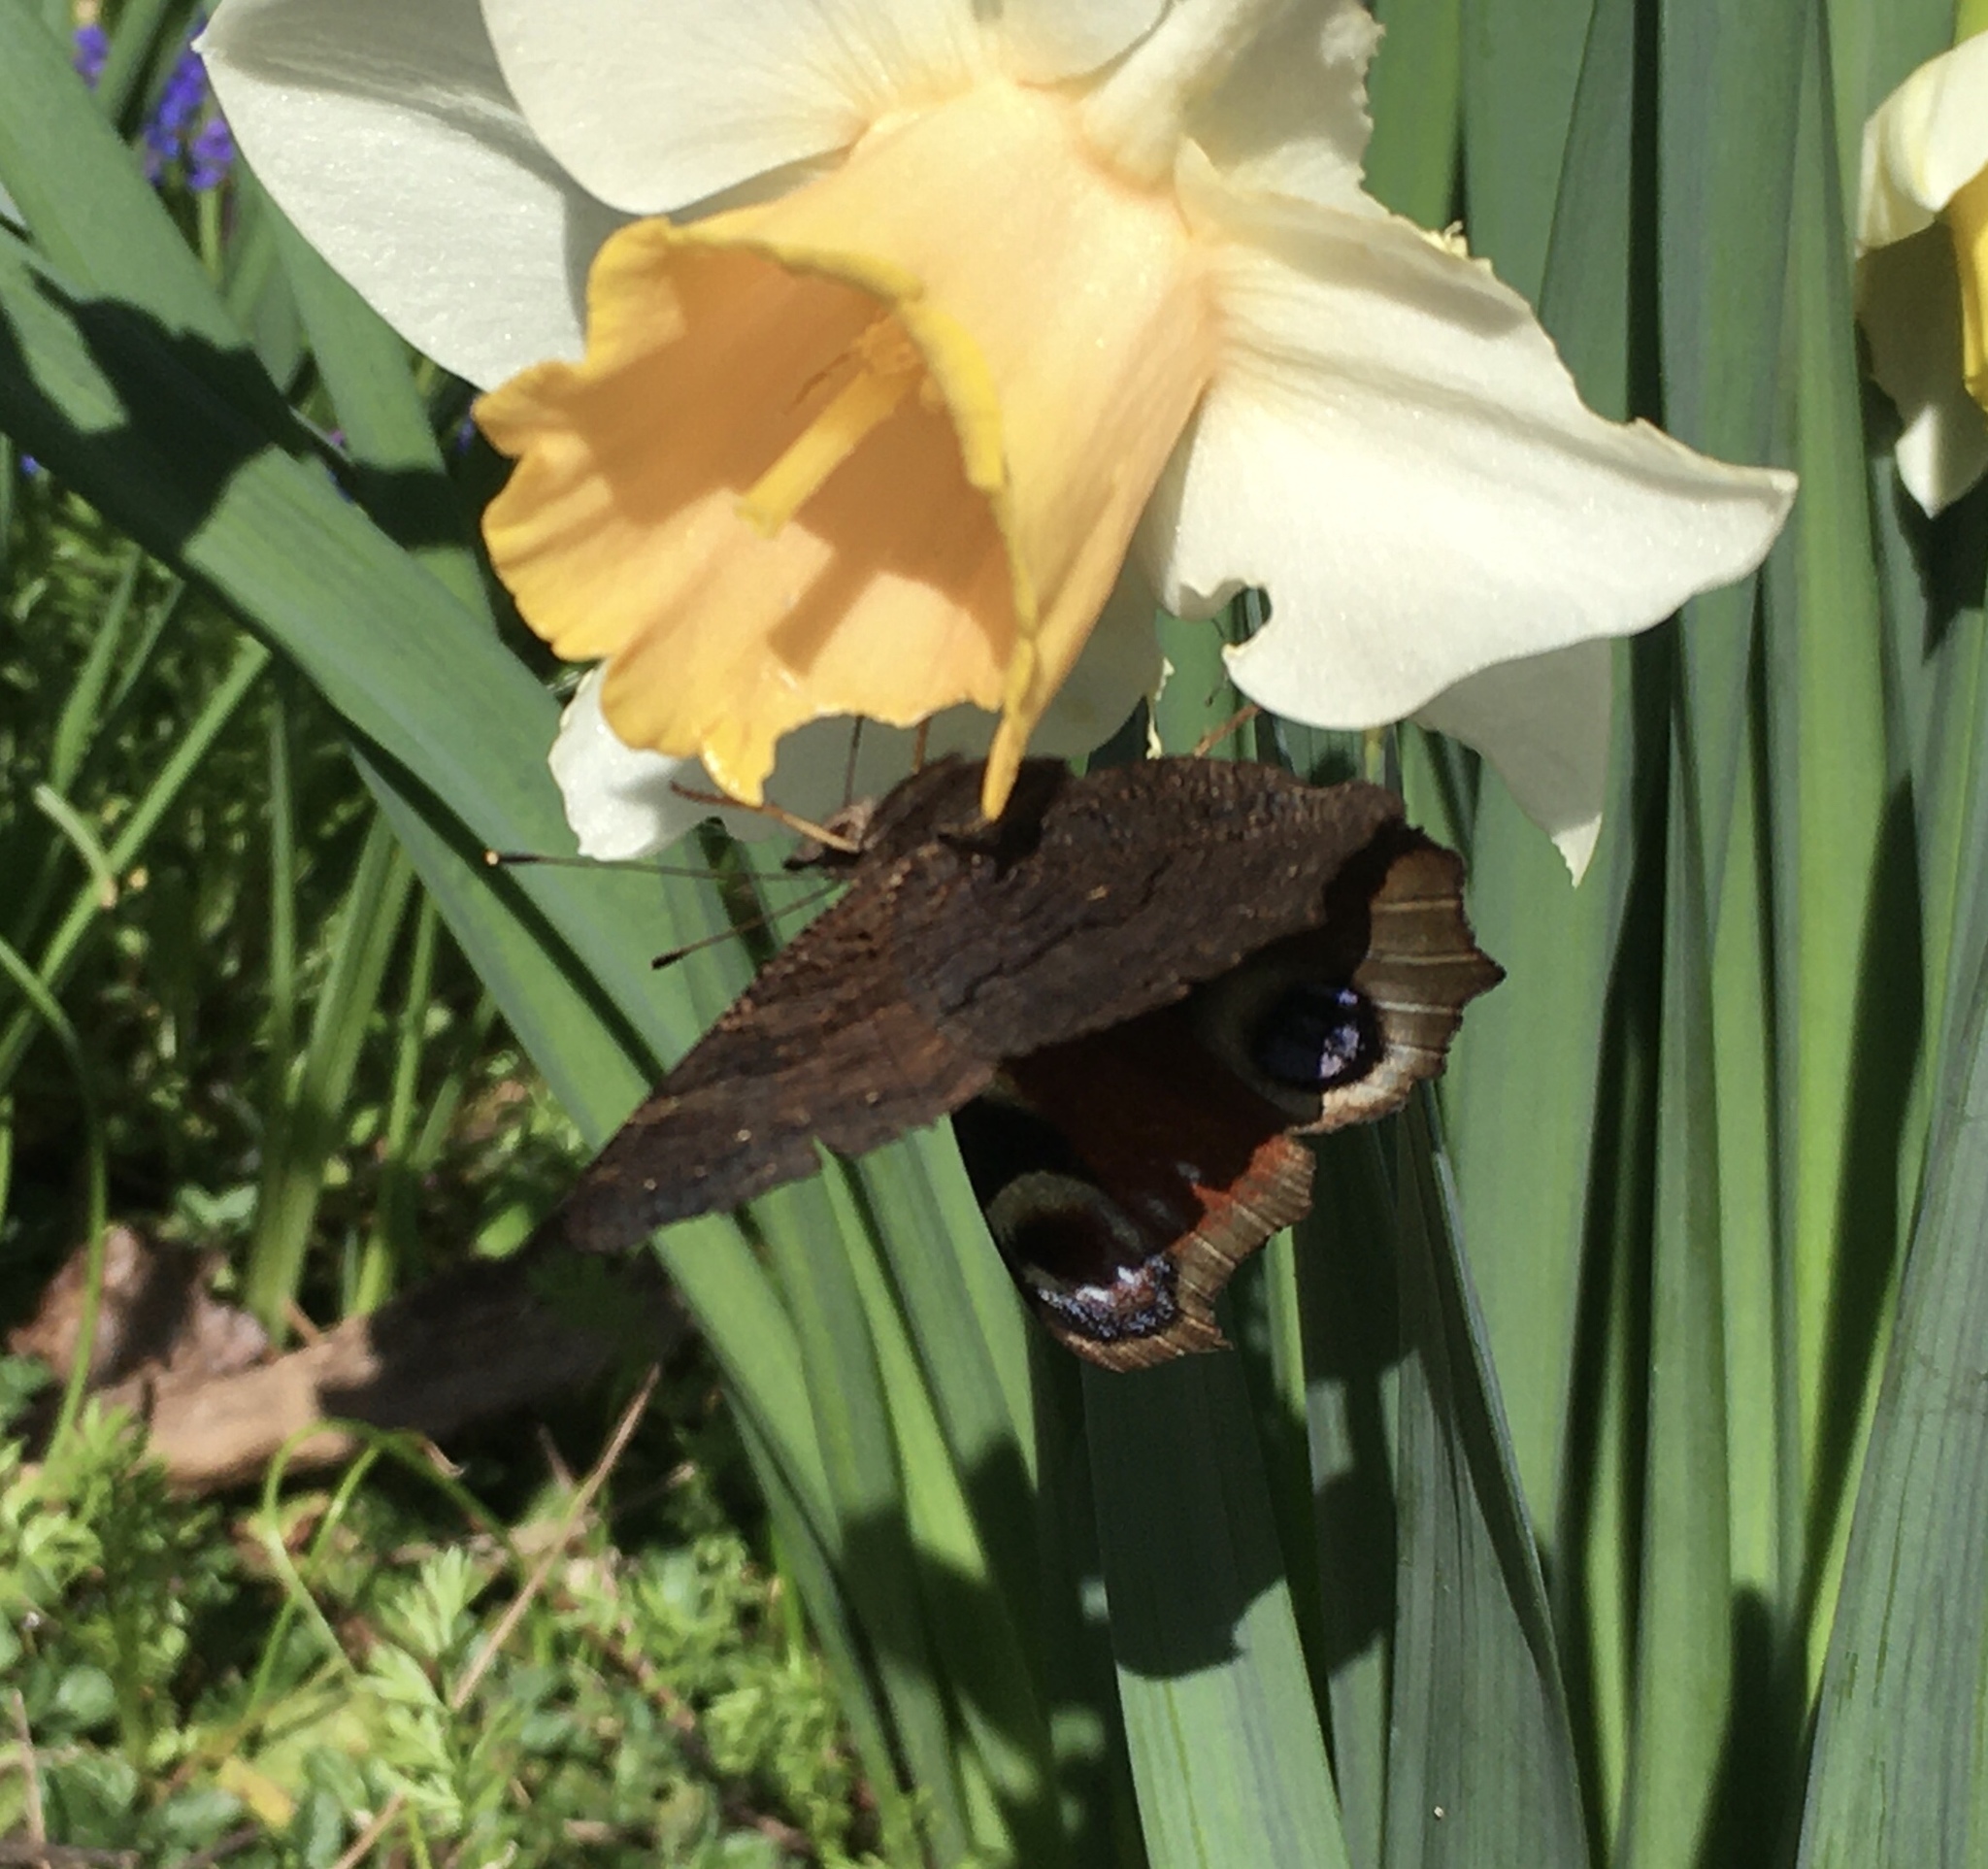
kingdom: Animalia
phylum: Arthropoda
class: Insecta
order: Lepidoptera
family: Nymphalidae
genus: Aglais
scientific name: Aglais io
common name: Peacock
